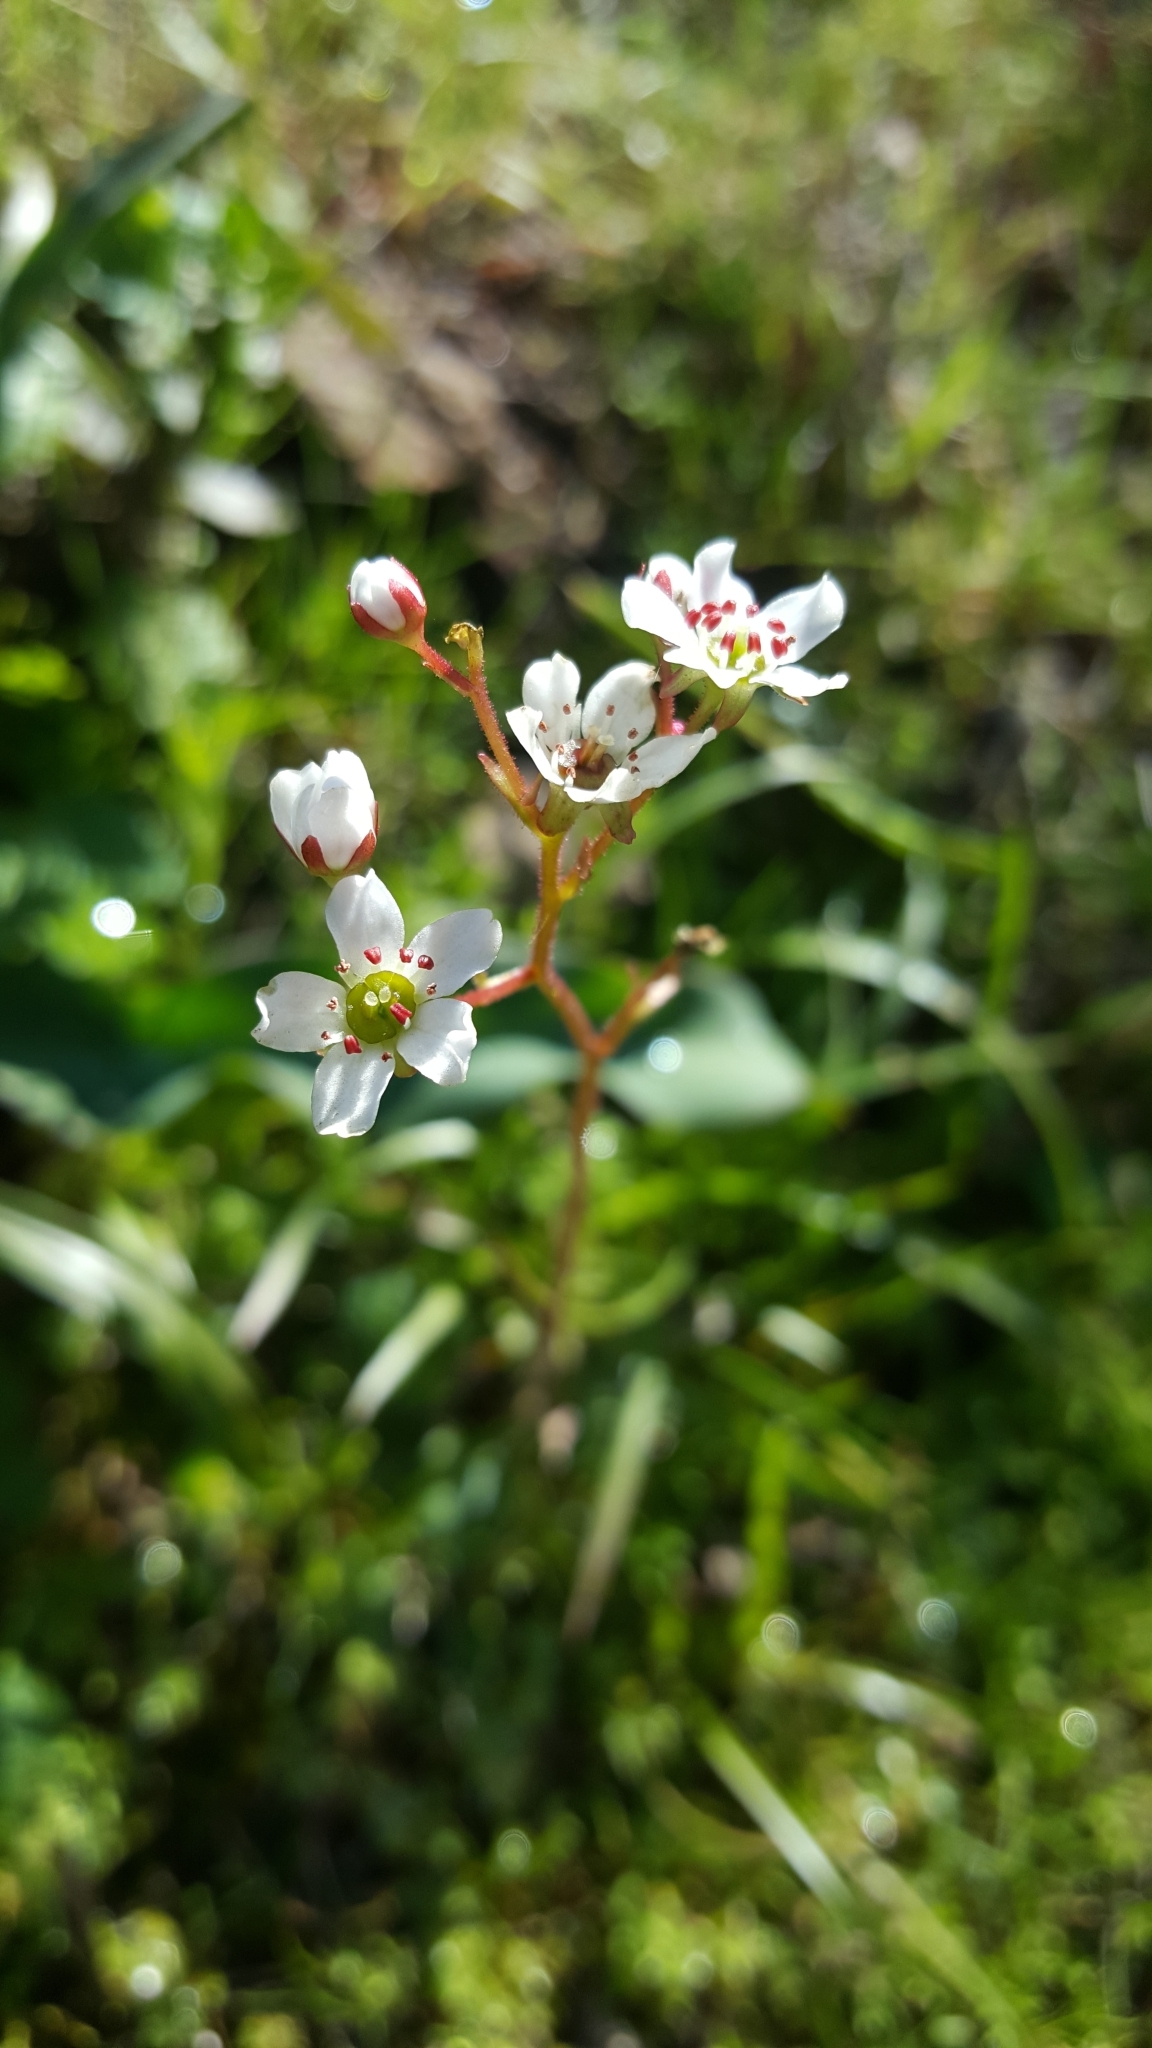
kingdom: Plantae
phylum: Tracheophyta
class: Magnoliopsida
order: Saxifragales
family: Saxifragaceae
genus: Micranthes
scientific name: Micranthes californica
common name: California saxifrage
